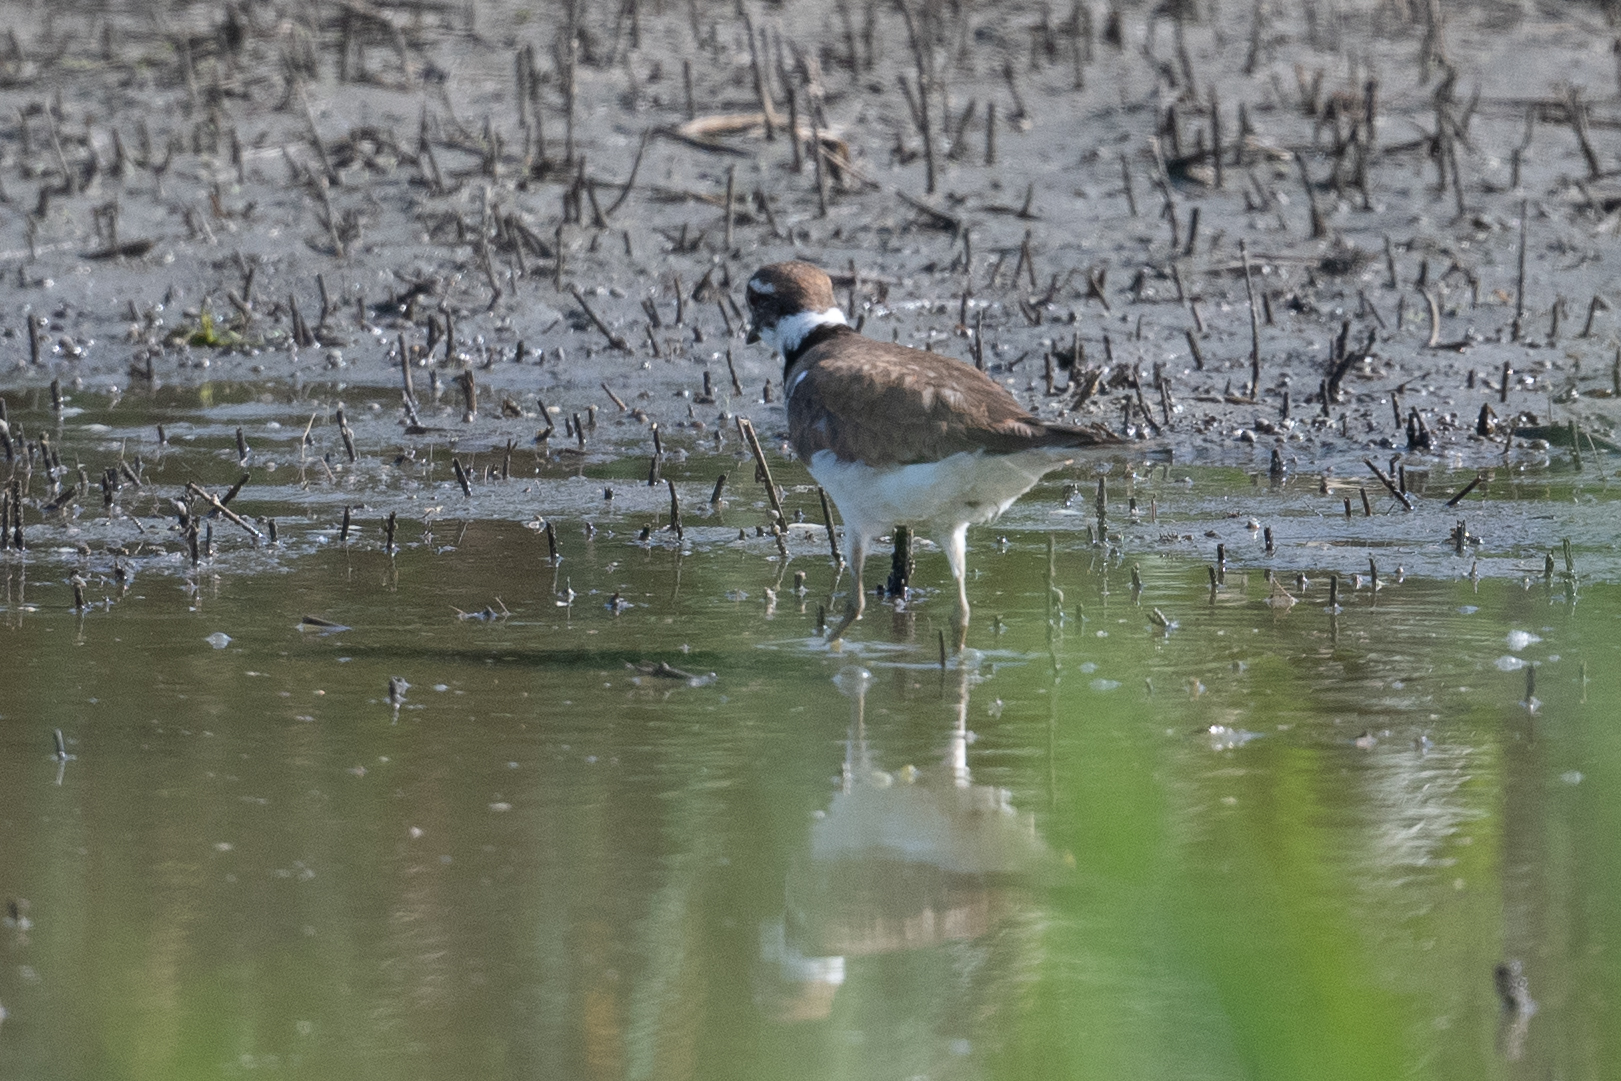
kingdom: Animalia
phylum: Chordata
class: Aves
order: Charadriiformes
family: Charadriidae
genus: Charadrius
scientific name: Charadrius vociferus
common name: Killdeer
